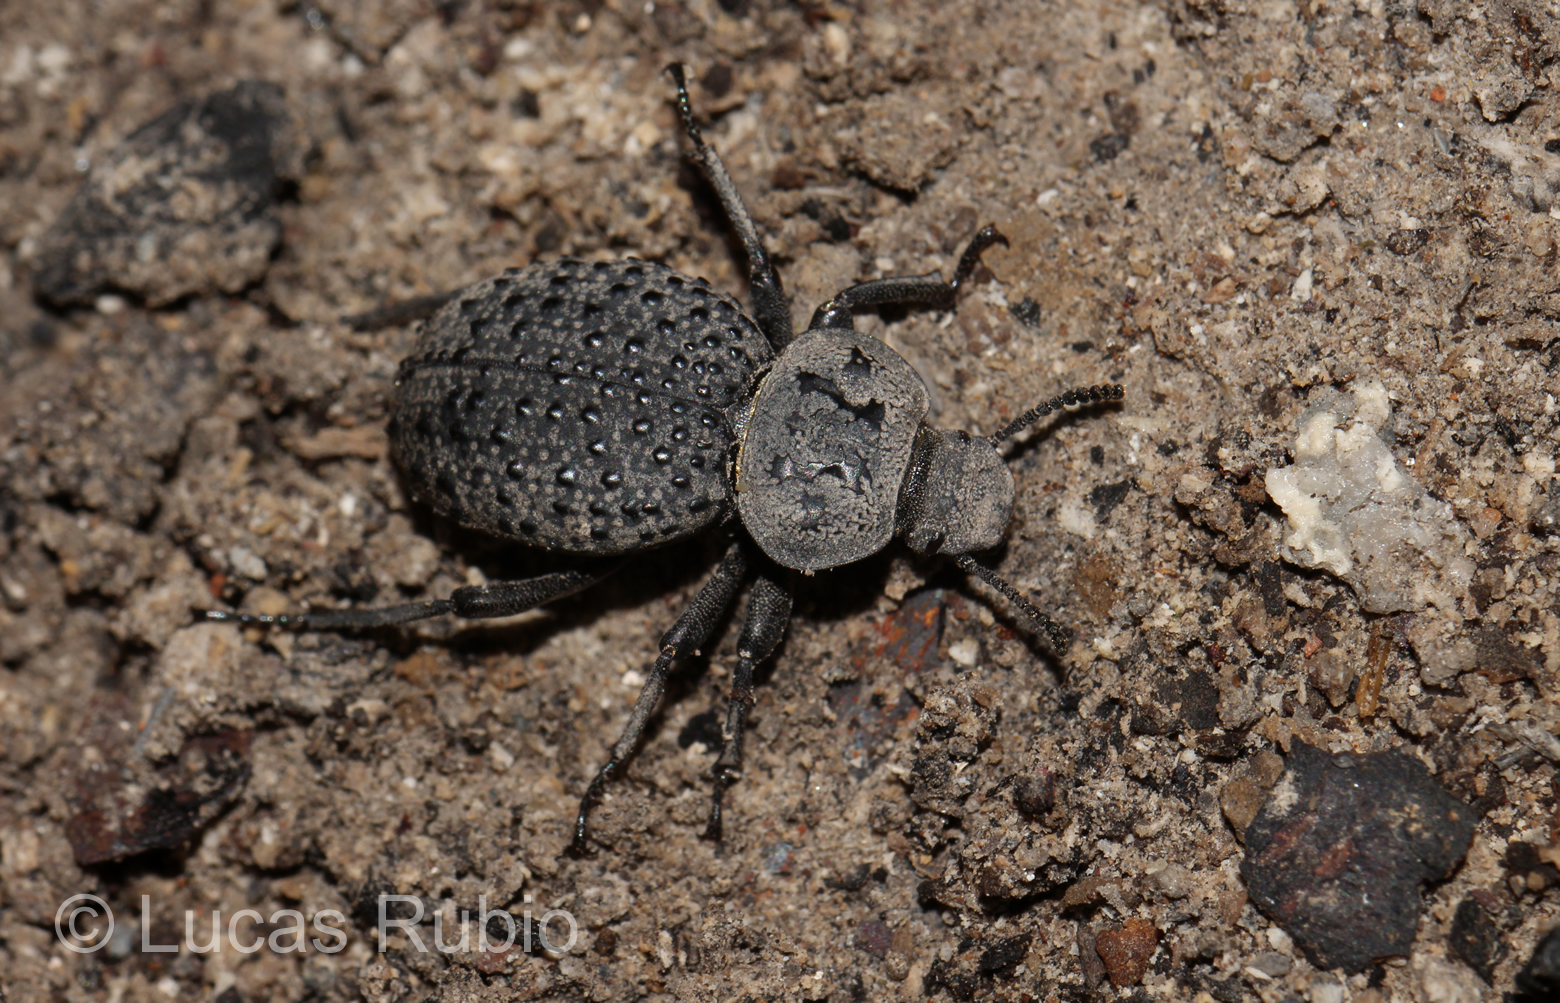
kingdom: Animalia
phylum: Arthropoda
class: Insecta
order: Coleoptera
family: Tenebrionidae
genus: Scotobius
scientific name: Scotobius pilularius
